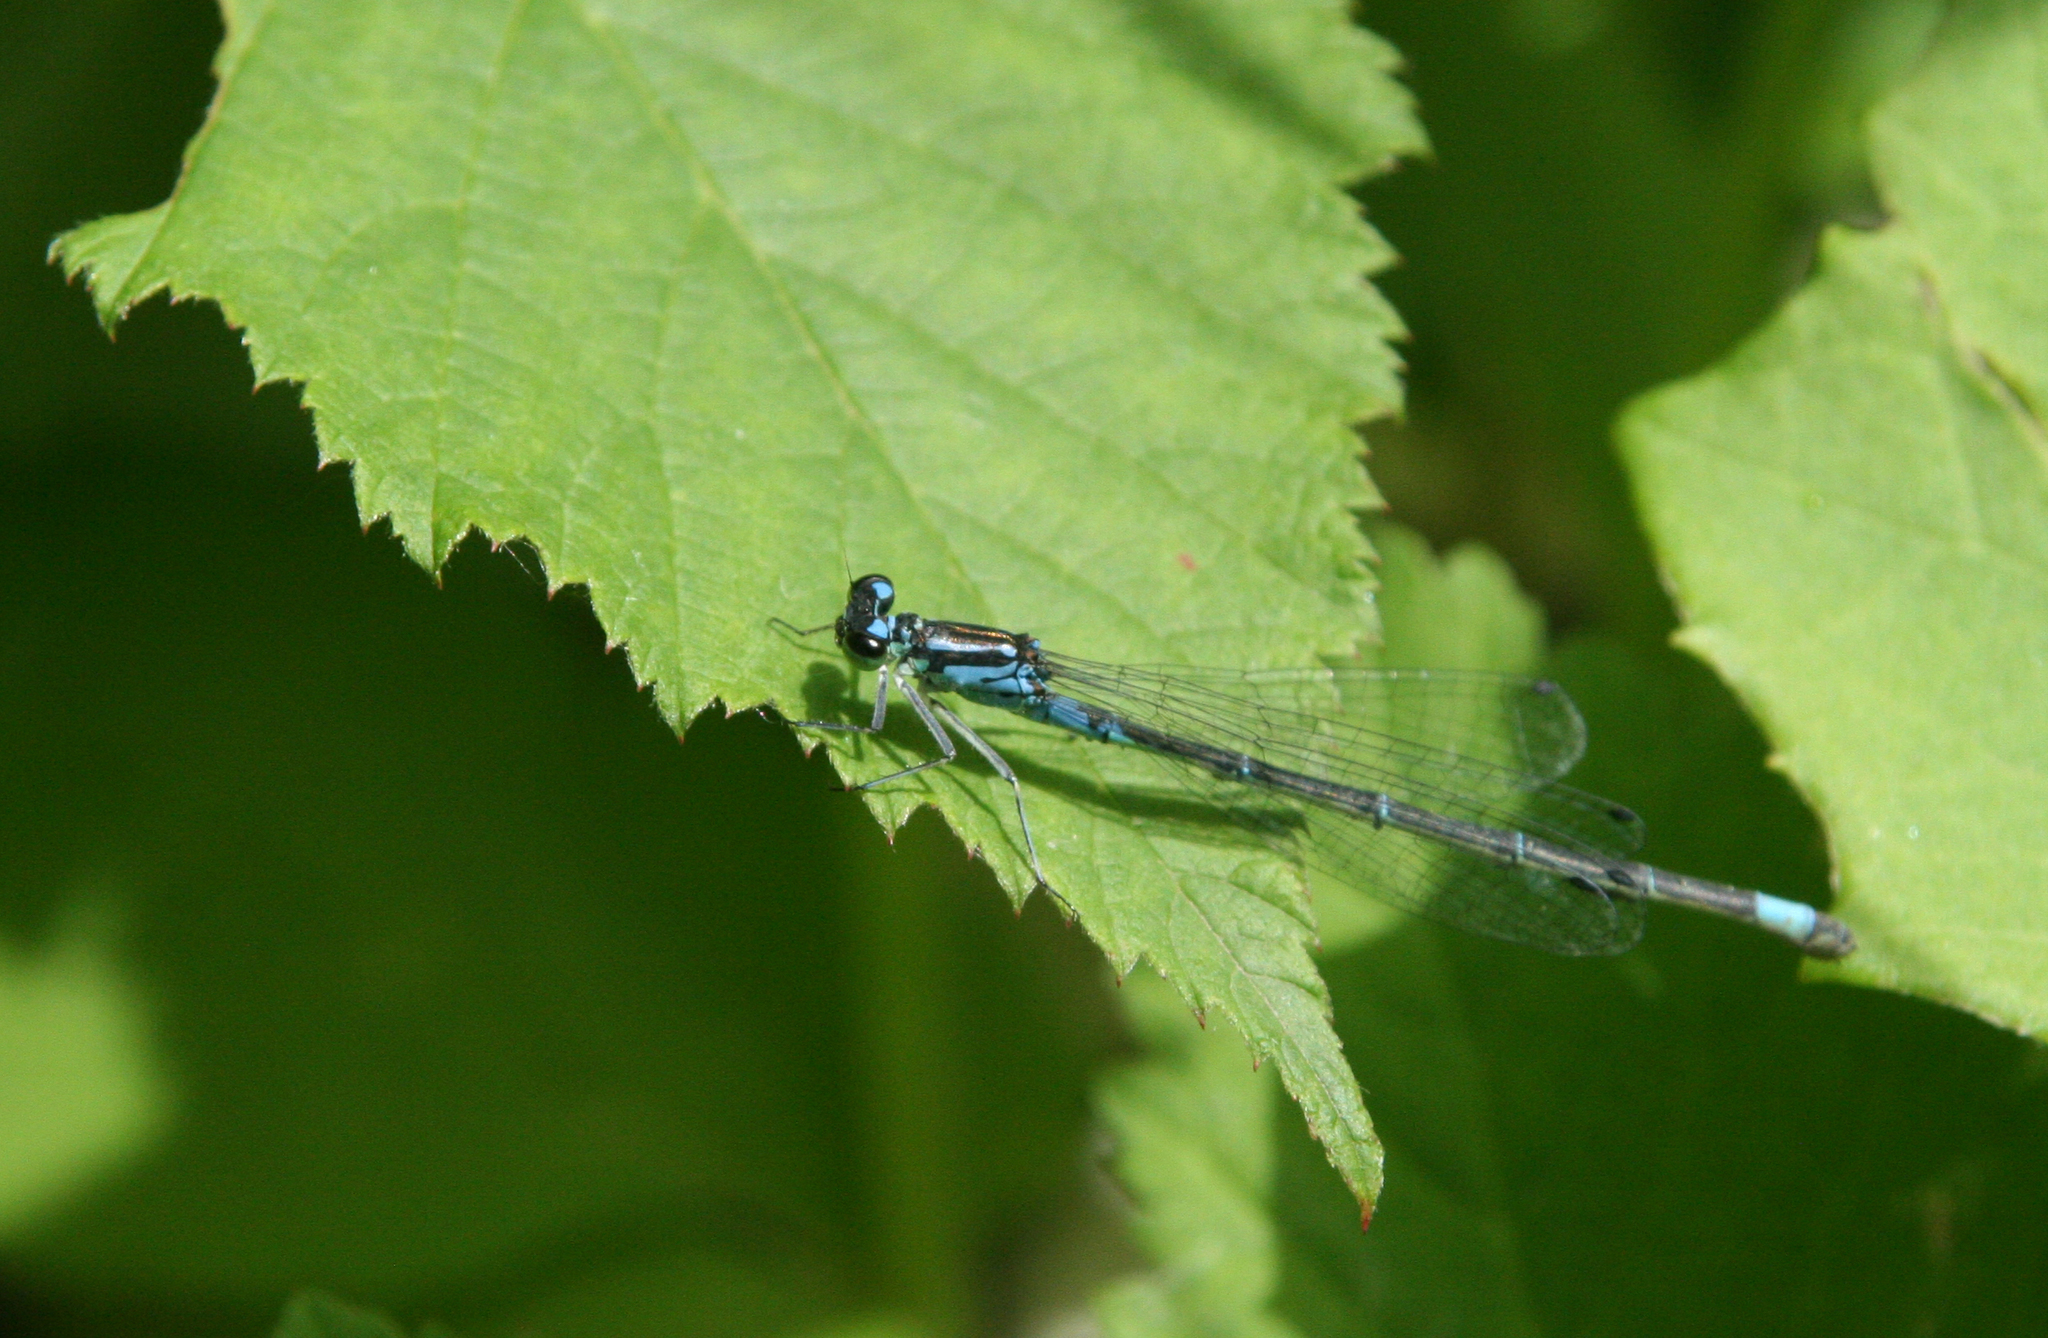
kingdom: Animalia
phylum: Arthropoda
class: Insecta
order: Odonata
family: Coenagrionidae
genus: Coenagrion
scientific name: Coenagrion pulchellum
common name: Variable bluet
